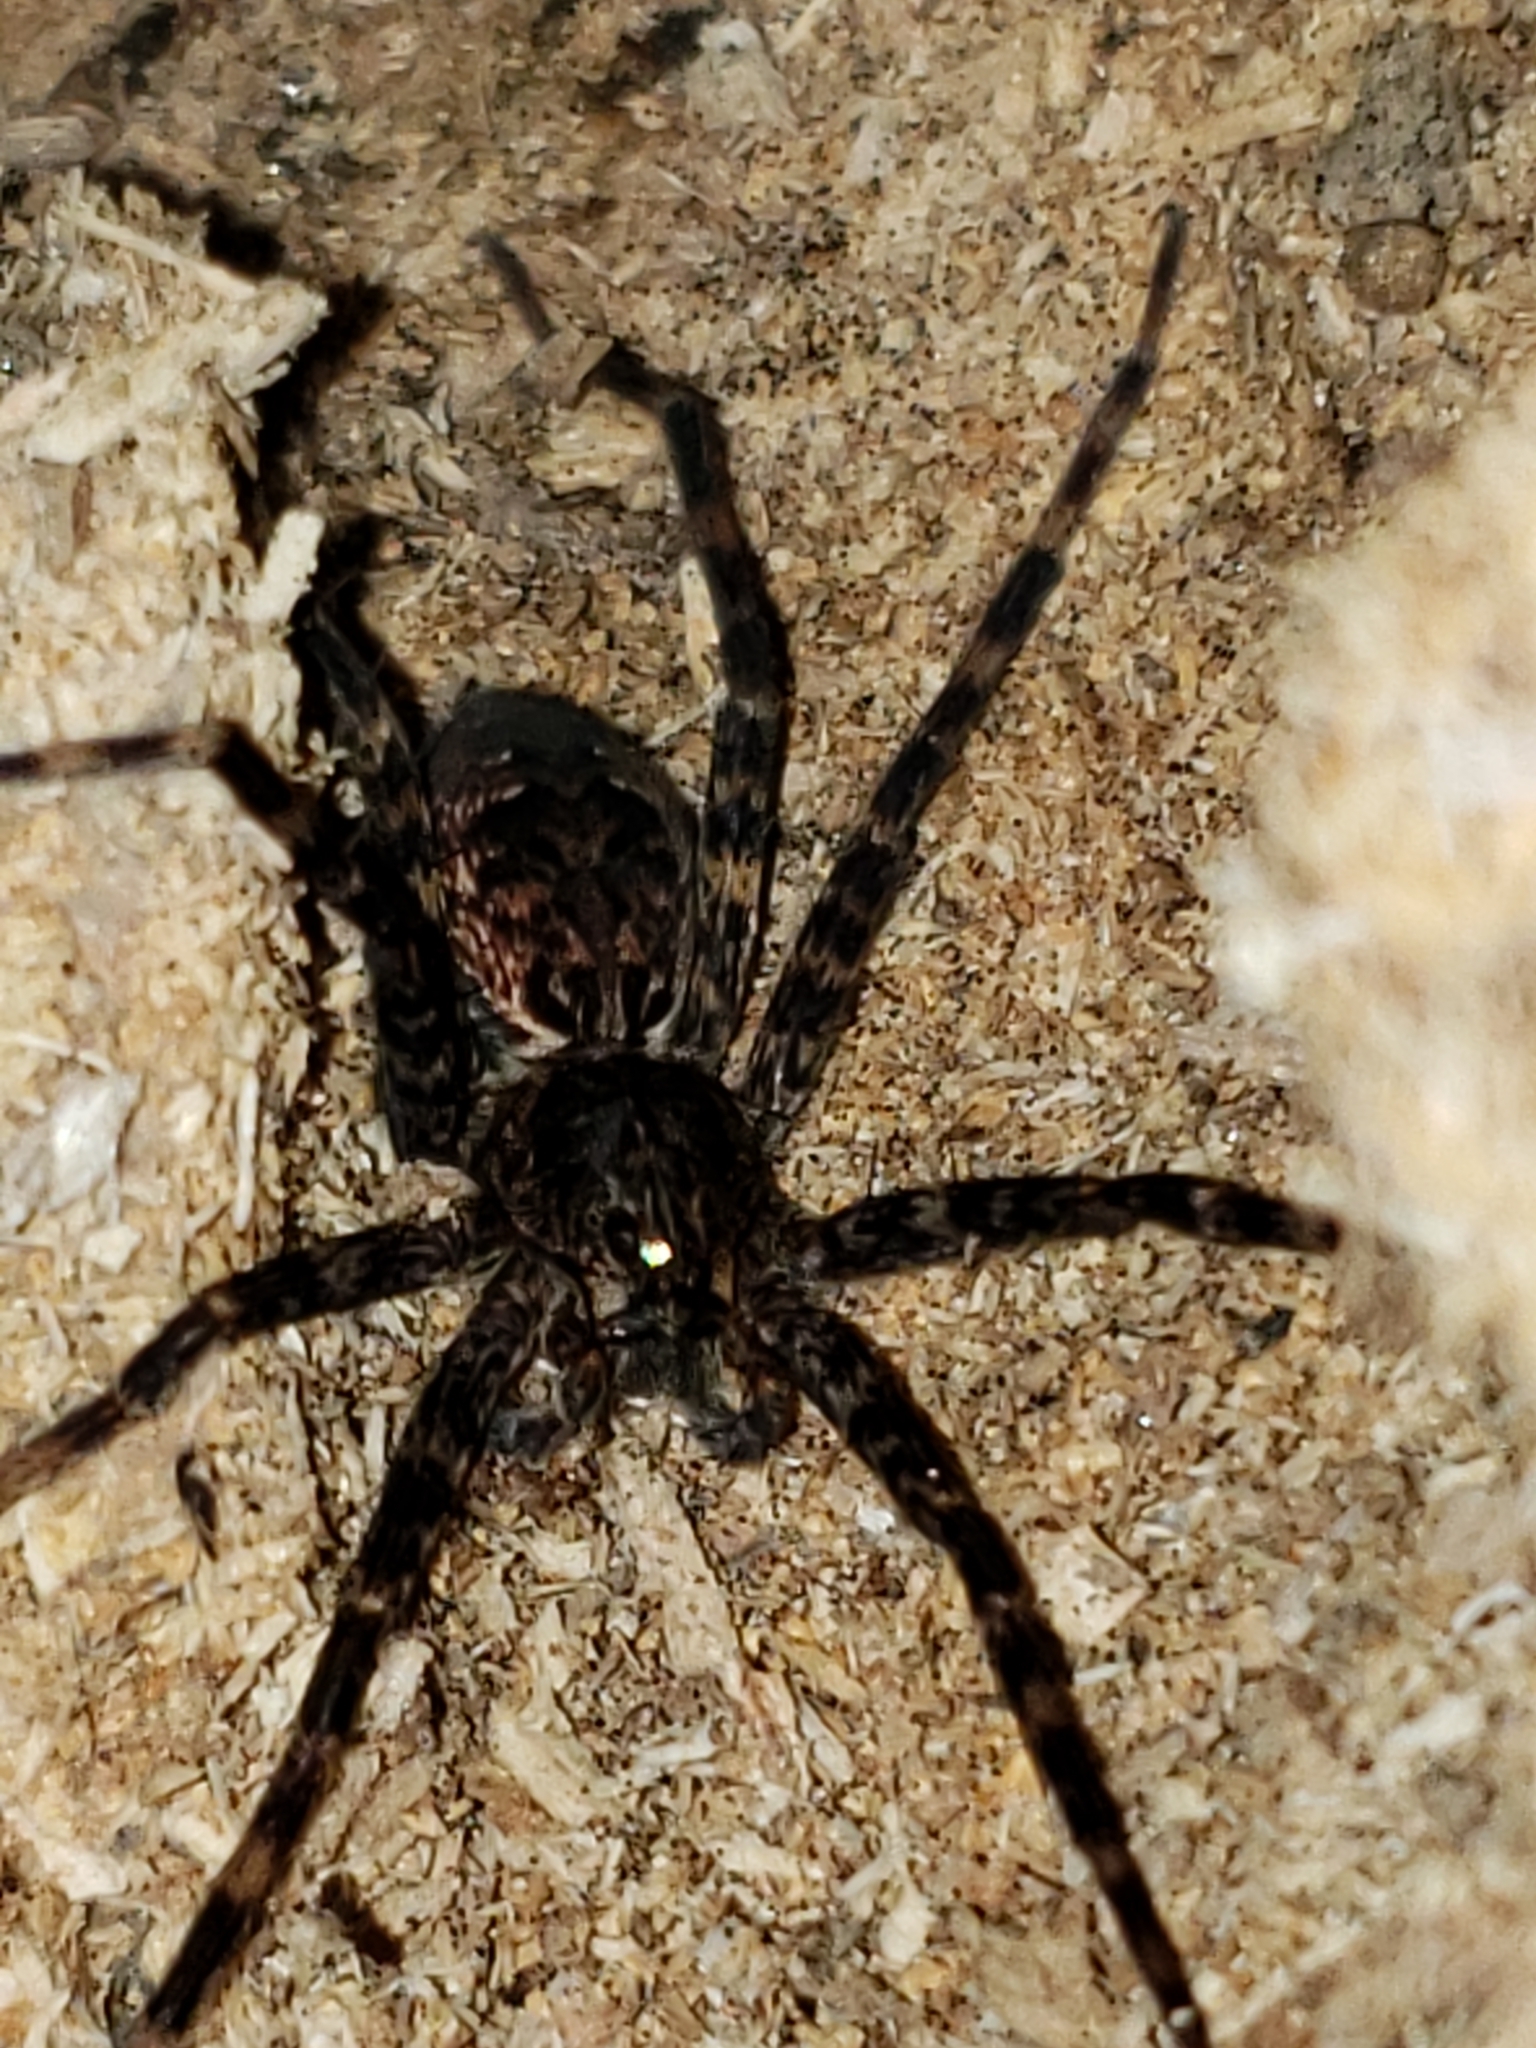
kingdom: Animalia
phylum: Arthropoda
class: Arachnida
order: Araneae
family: Pisauridae
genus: Dolomedes
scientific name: Dolomedes tenebrosus
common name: Dark fishing spider
